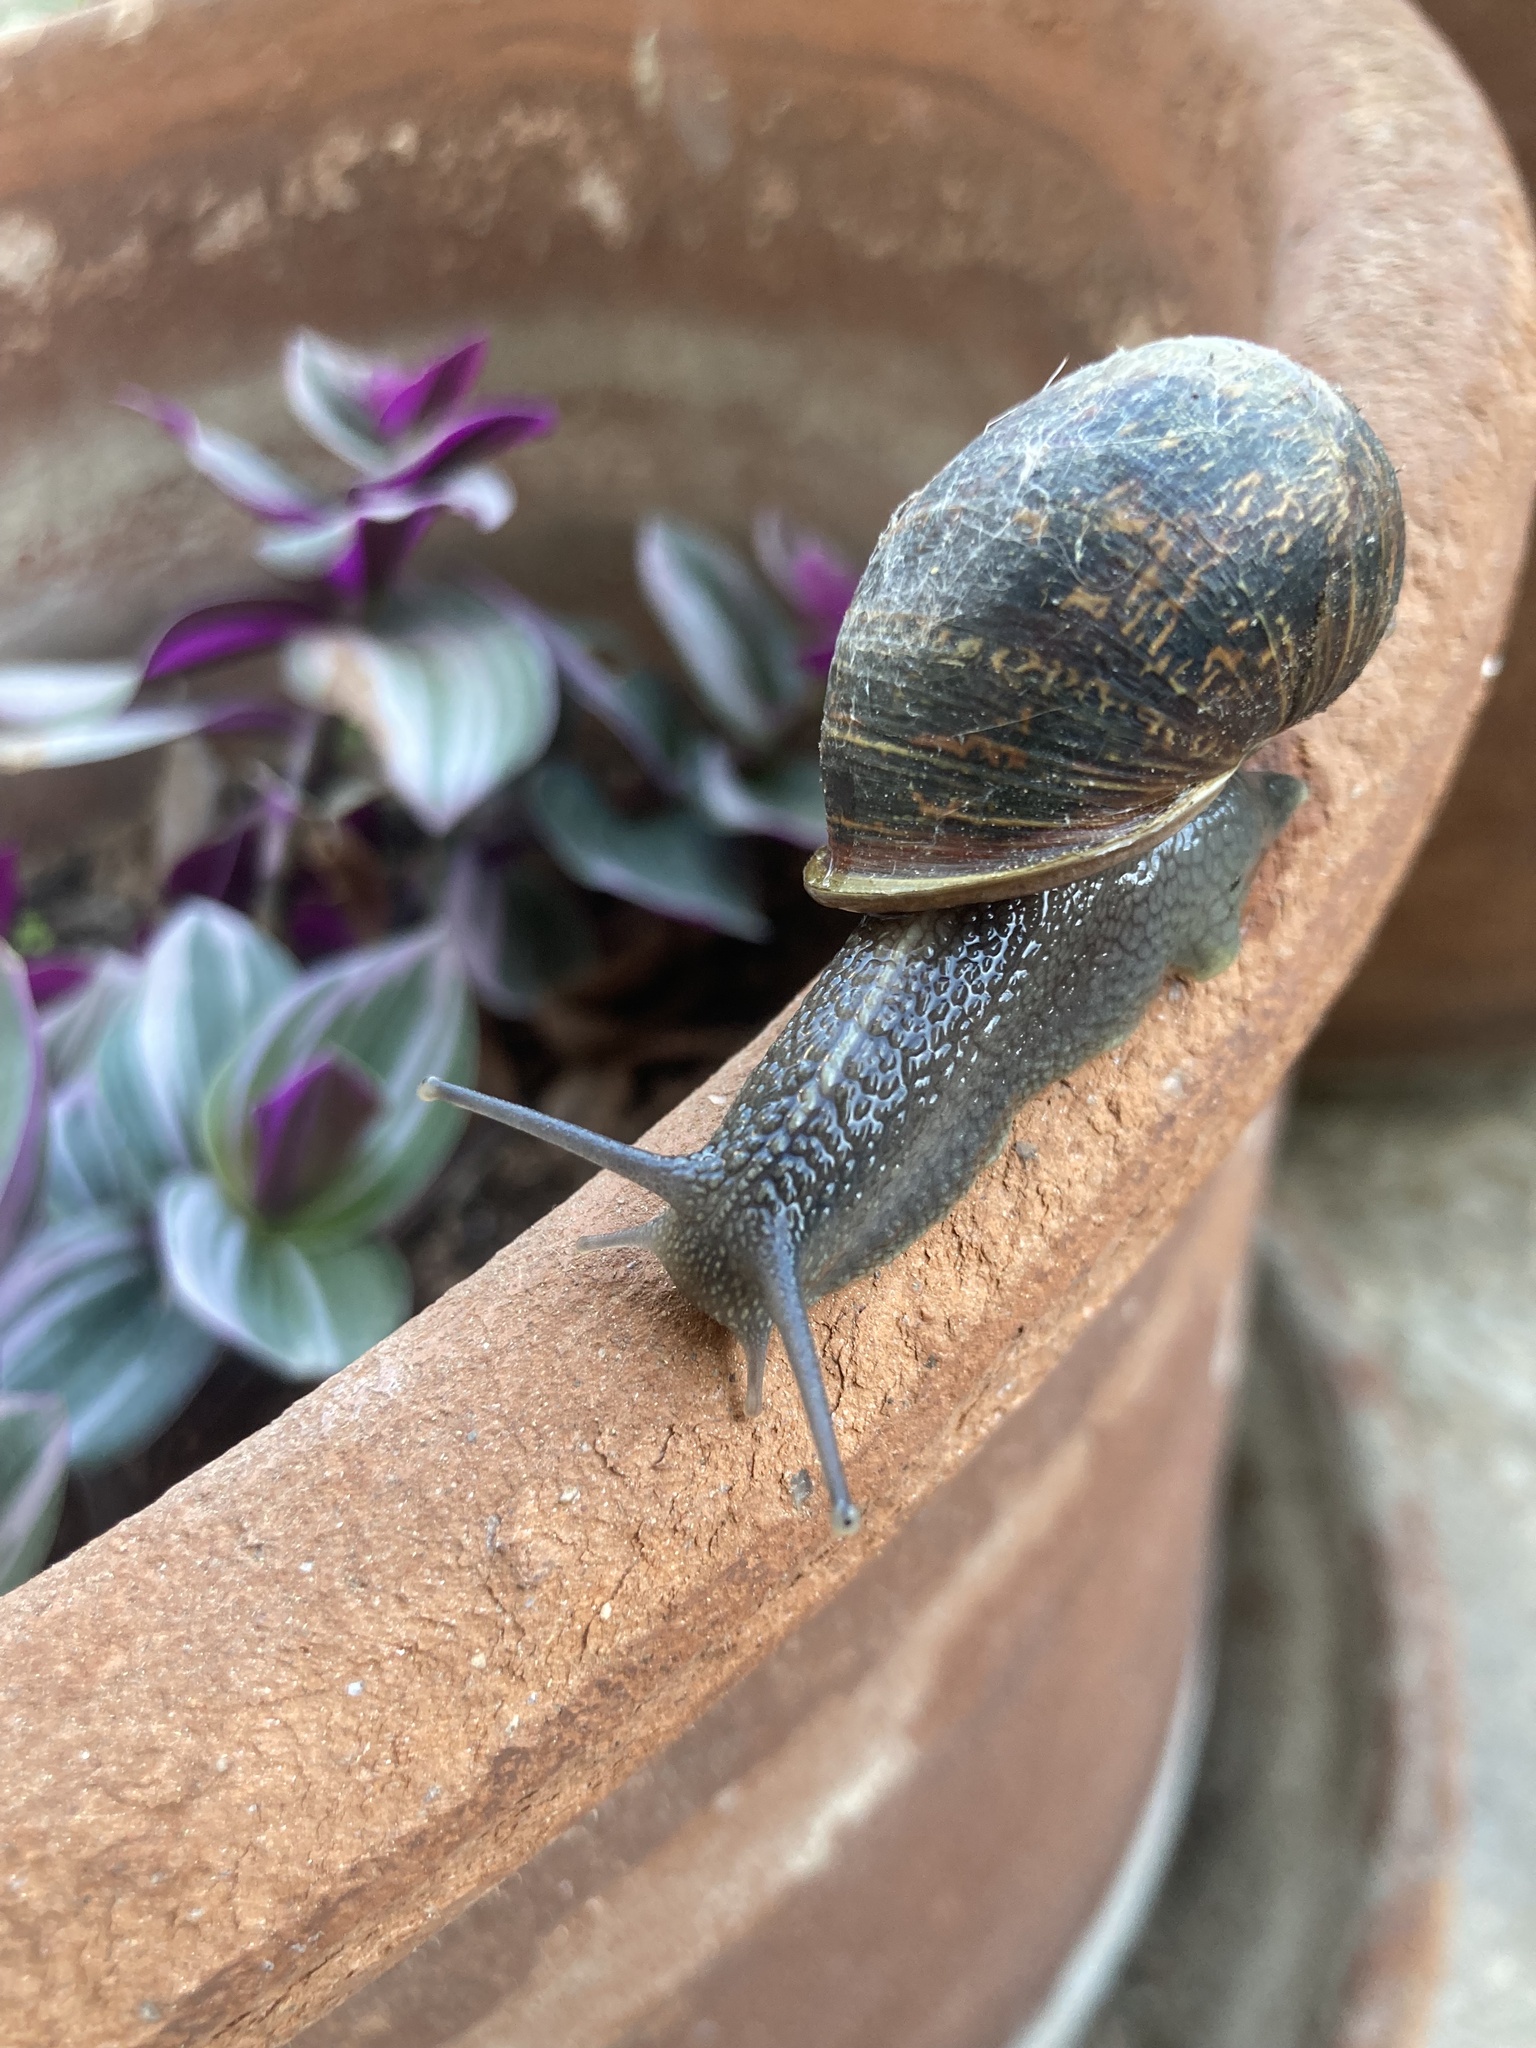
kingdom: Animalia
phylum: Mollusca
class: Gastropoda
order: Stylommatophora
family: Helicidae
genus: Cornu
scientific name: Cornu aspersum
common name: Brown garden snail
